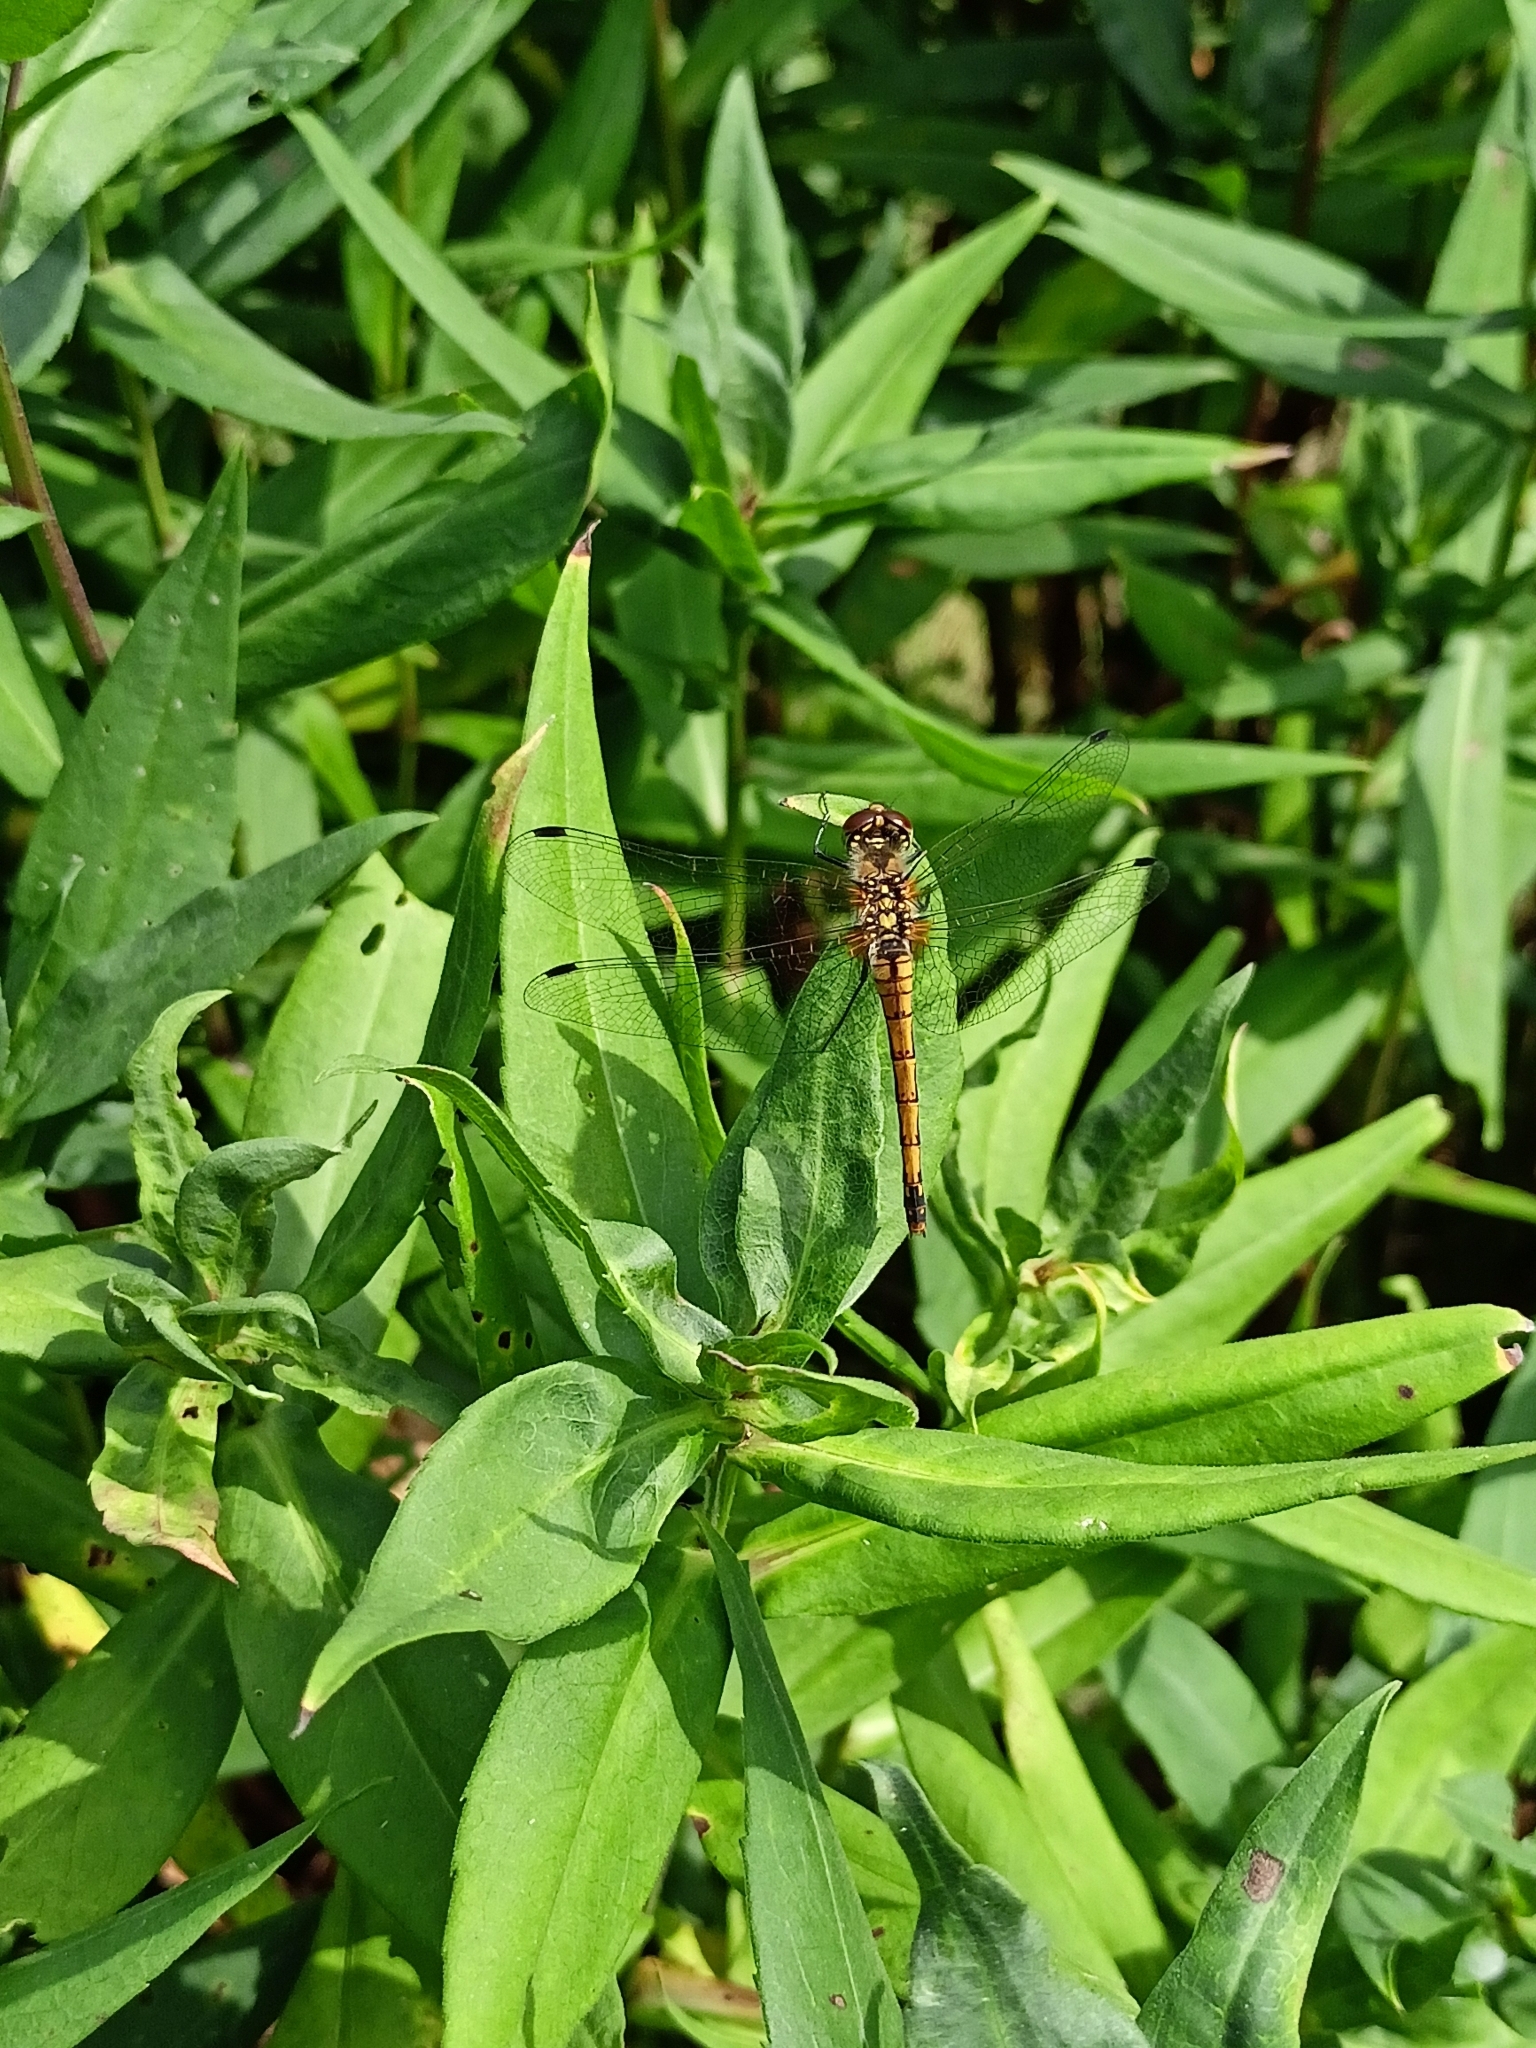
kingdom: Animalia
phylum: Arthropoda
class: Insecta
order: Odonata
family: Libellulidae
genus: Sympetrum
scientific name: Sympetrum danae
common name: Black darter
